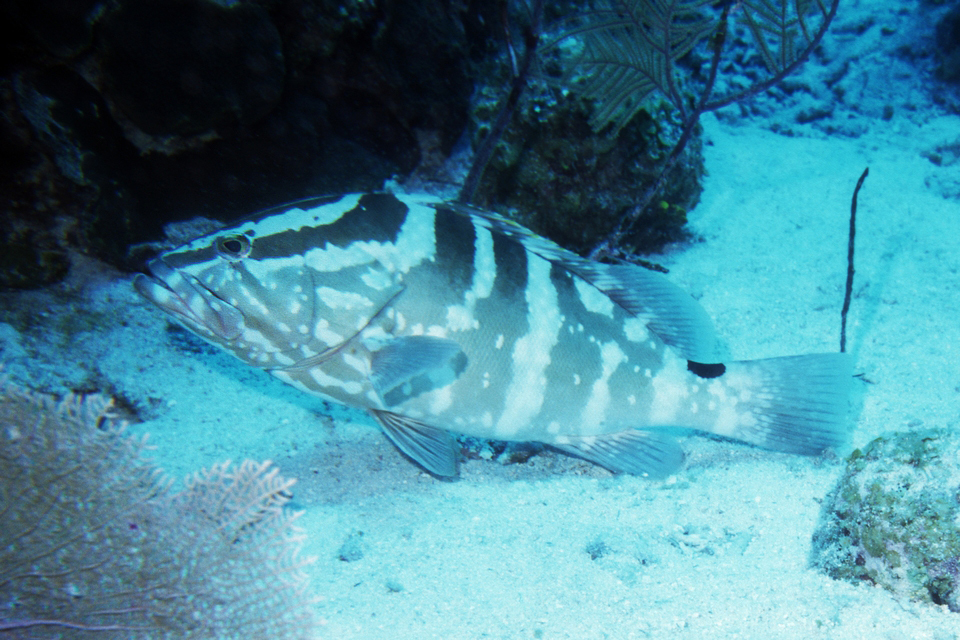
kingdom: Animalia
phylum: Chordata
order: Perciformes
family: Serranidae
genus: Epinephelus
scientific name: Epinephelus striatus
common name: Nassau grouper
